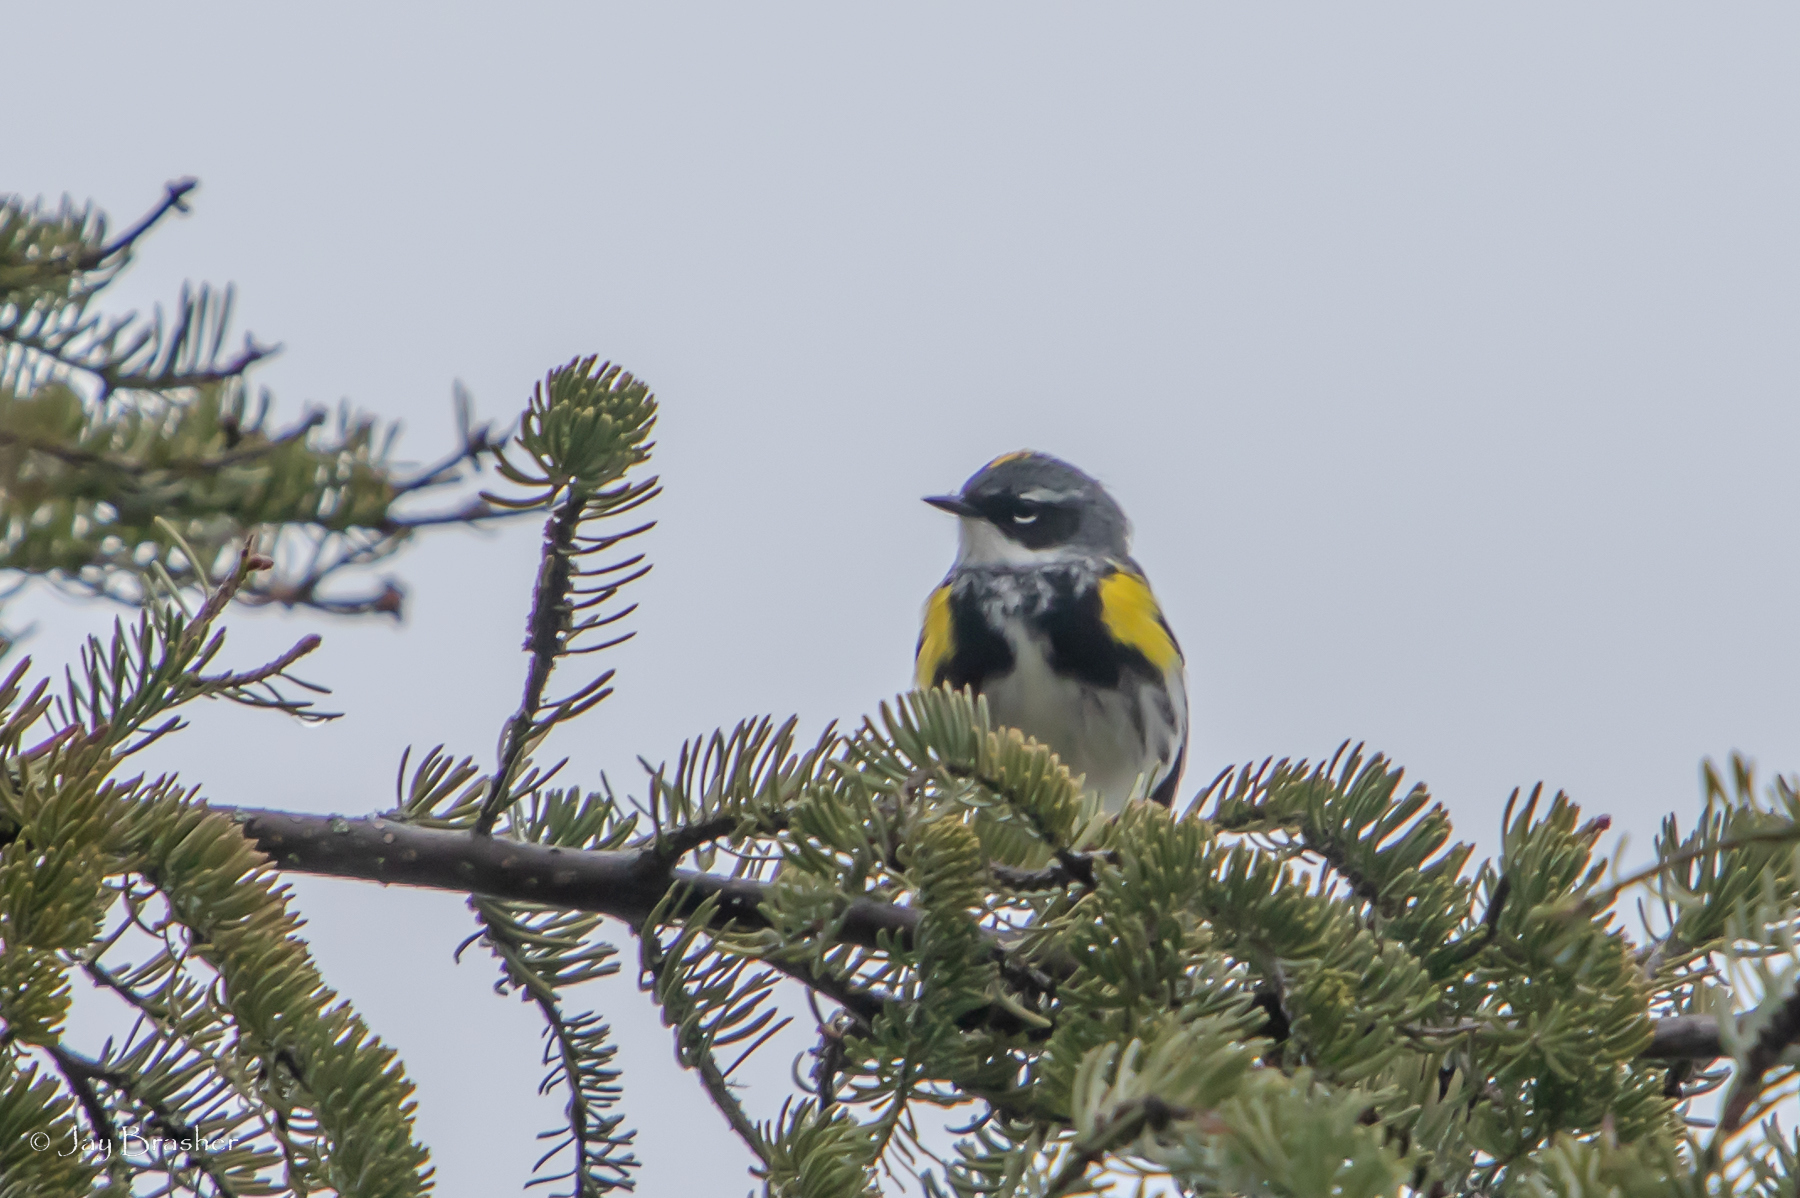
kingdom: Animalia
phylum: Chordata
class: Aves
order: Passeriformes
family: Parulidae
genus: Setophaga
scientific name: Setophaga coronata
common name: Myrtle warbler
